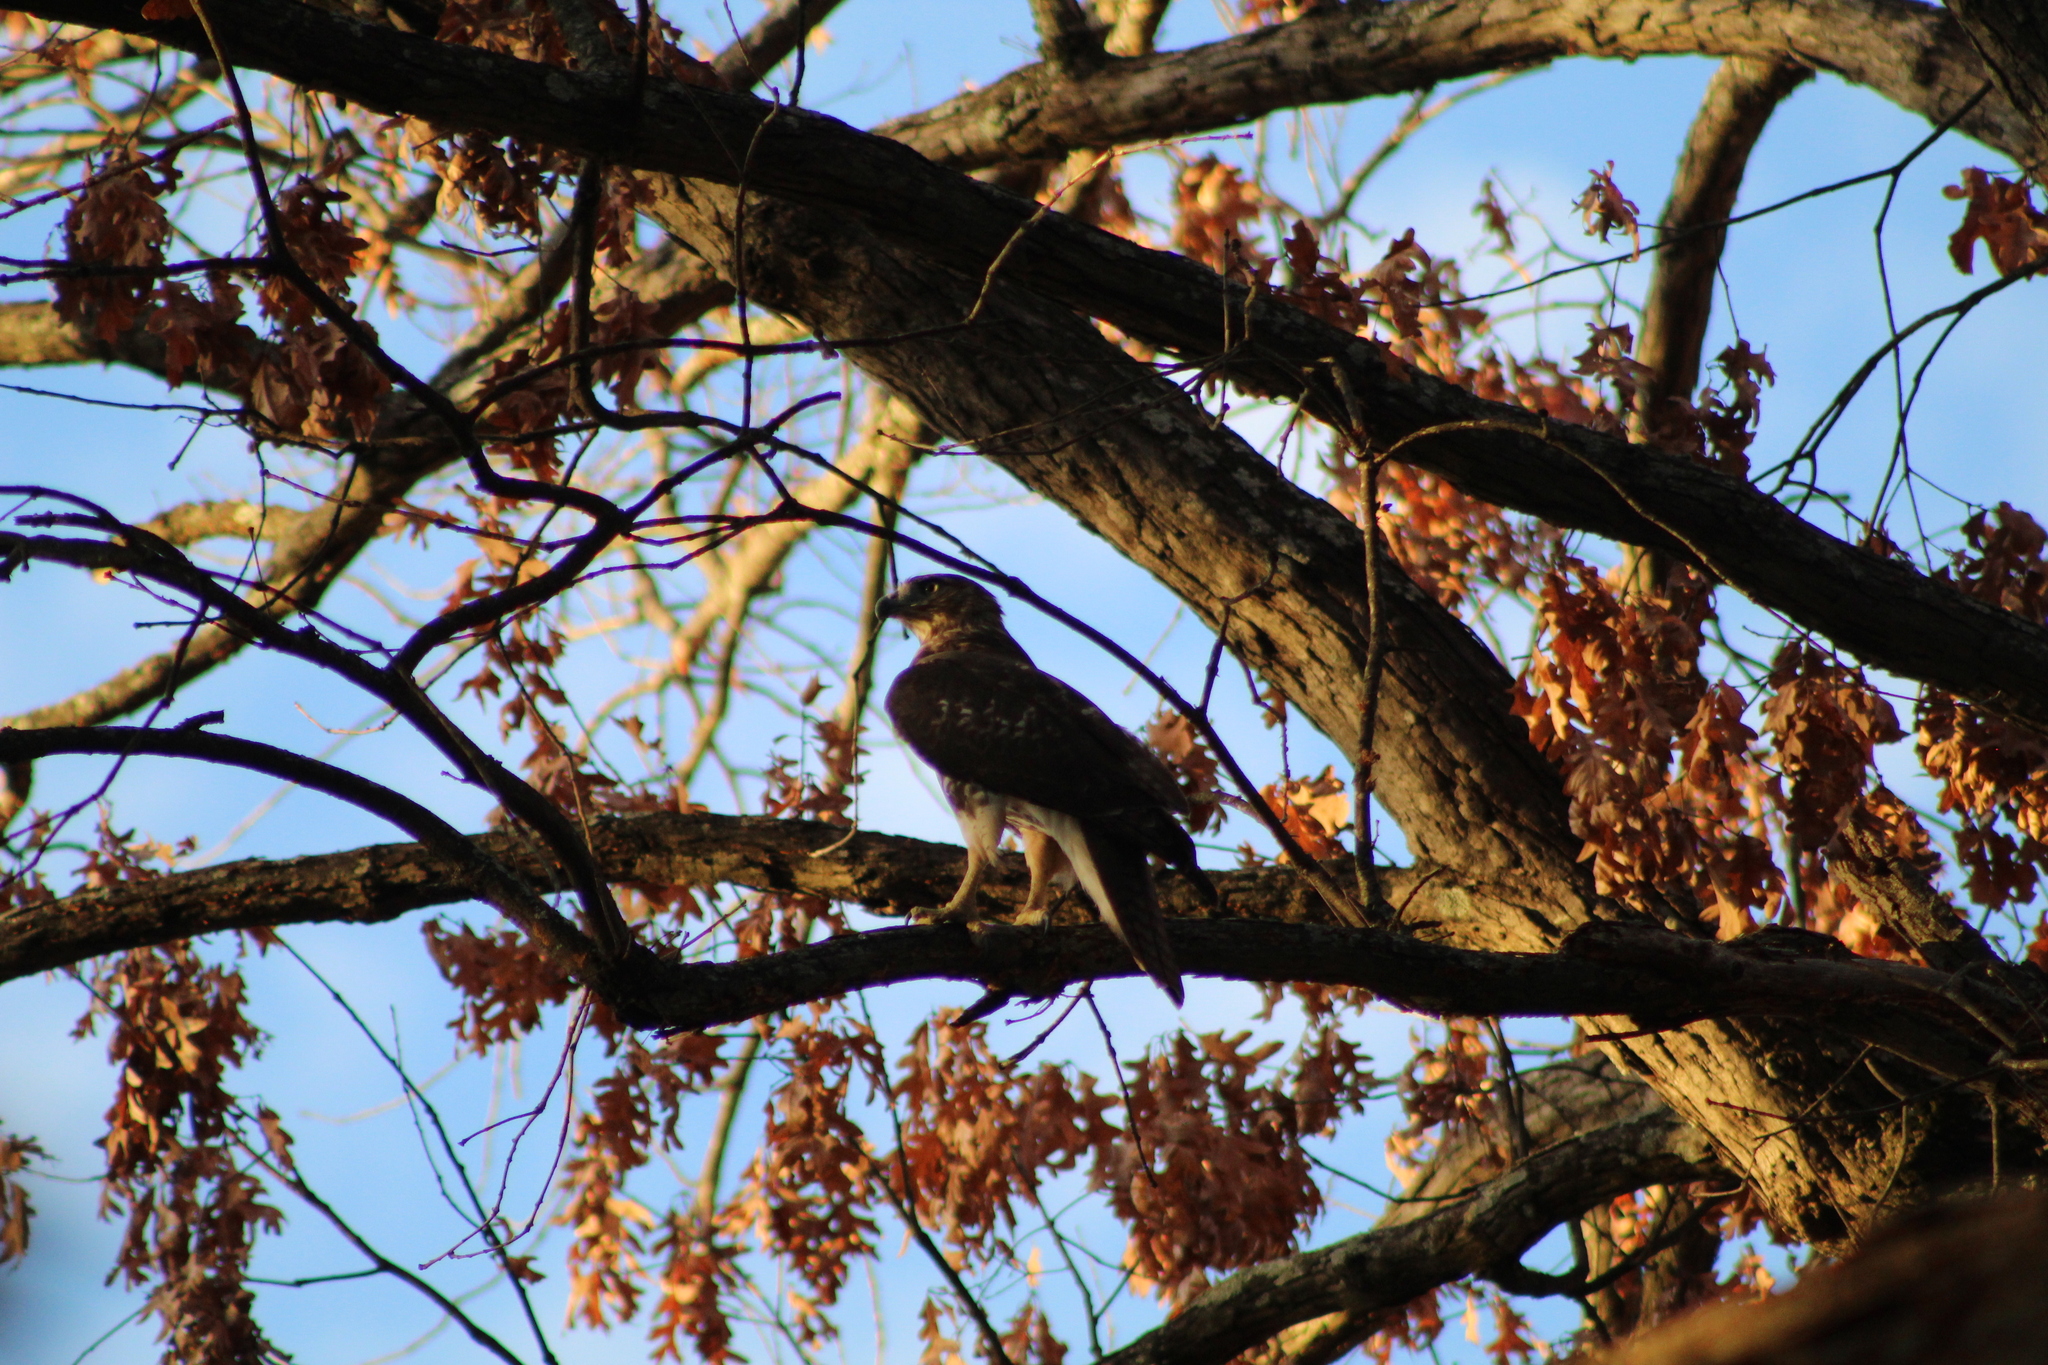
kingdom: Animalia
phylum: Chordata
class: Aves
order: Accipitriformes
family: Accipitridae
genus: Buteo
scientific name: Buteo jamaicensis
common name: Red-tailed hawk
